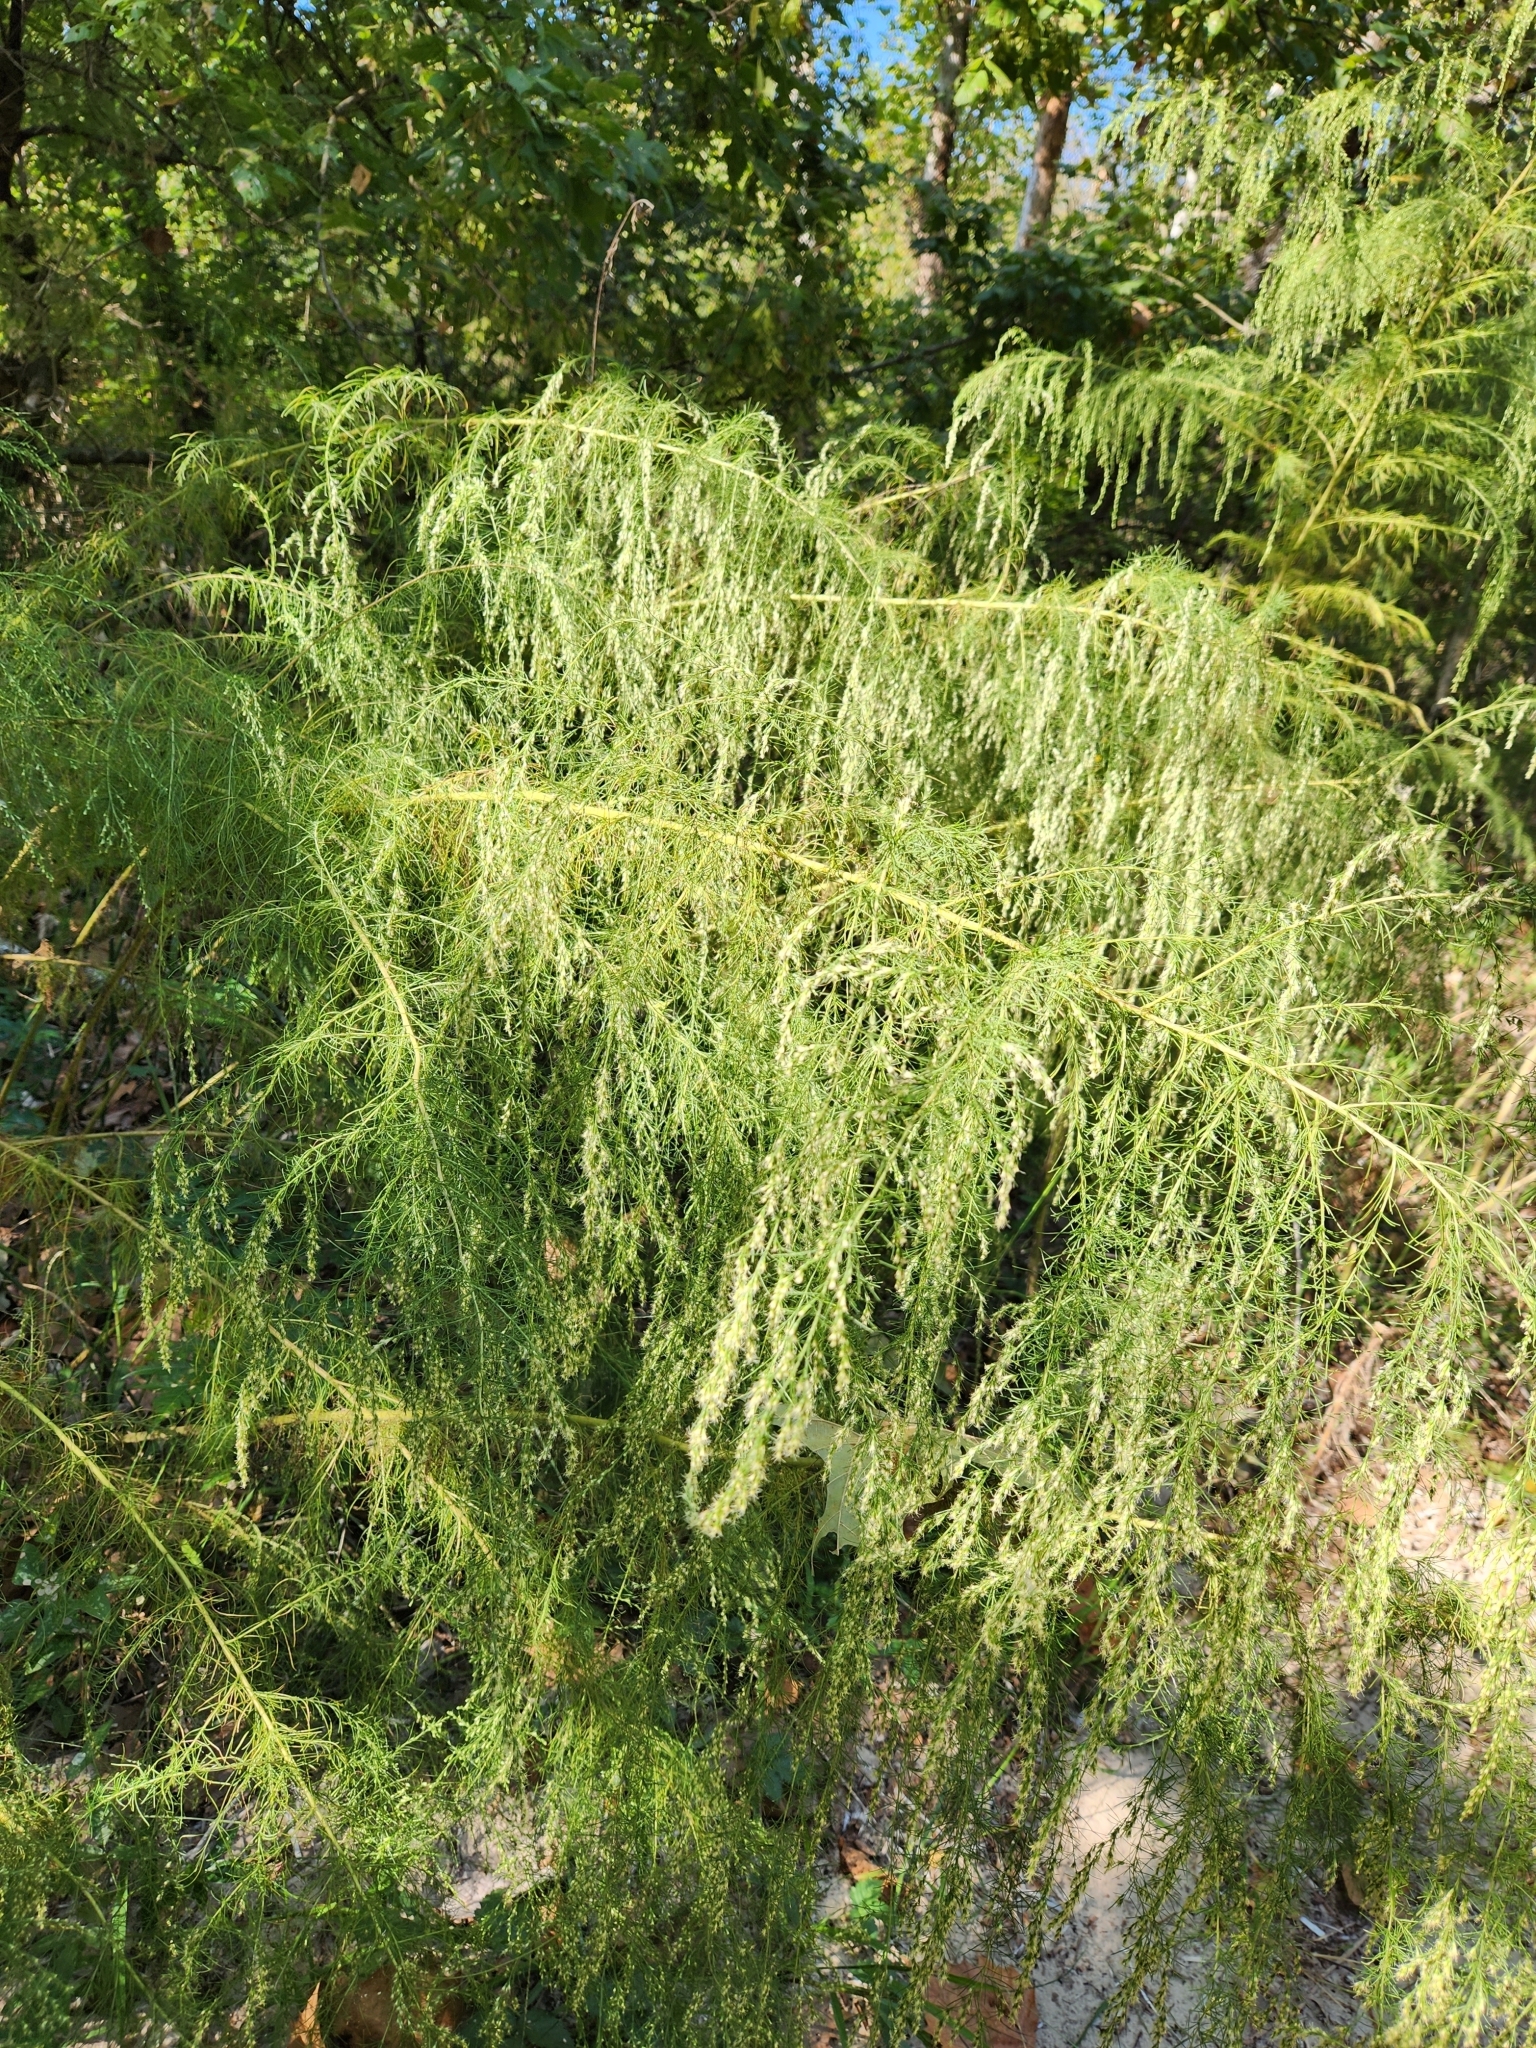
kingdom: Plantae
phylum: Tracheophyta
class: Magnoliopsida
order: Asterales
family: Asteraceae
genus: Eupatorium
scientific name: Eupatorium capillifolium
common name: Dog-fennel
